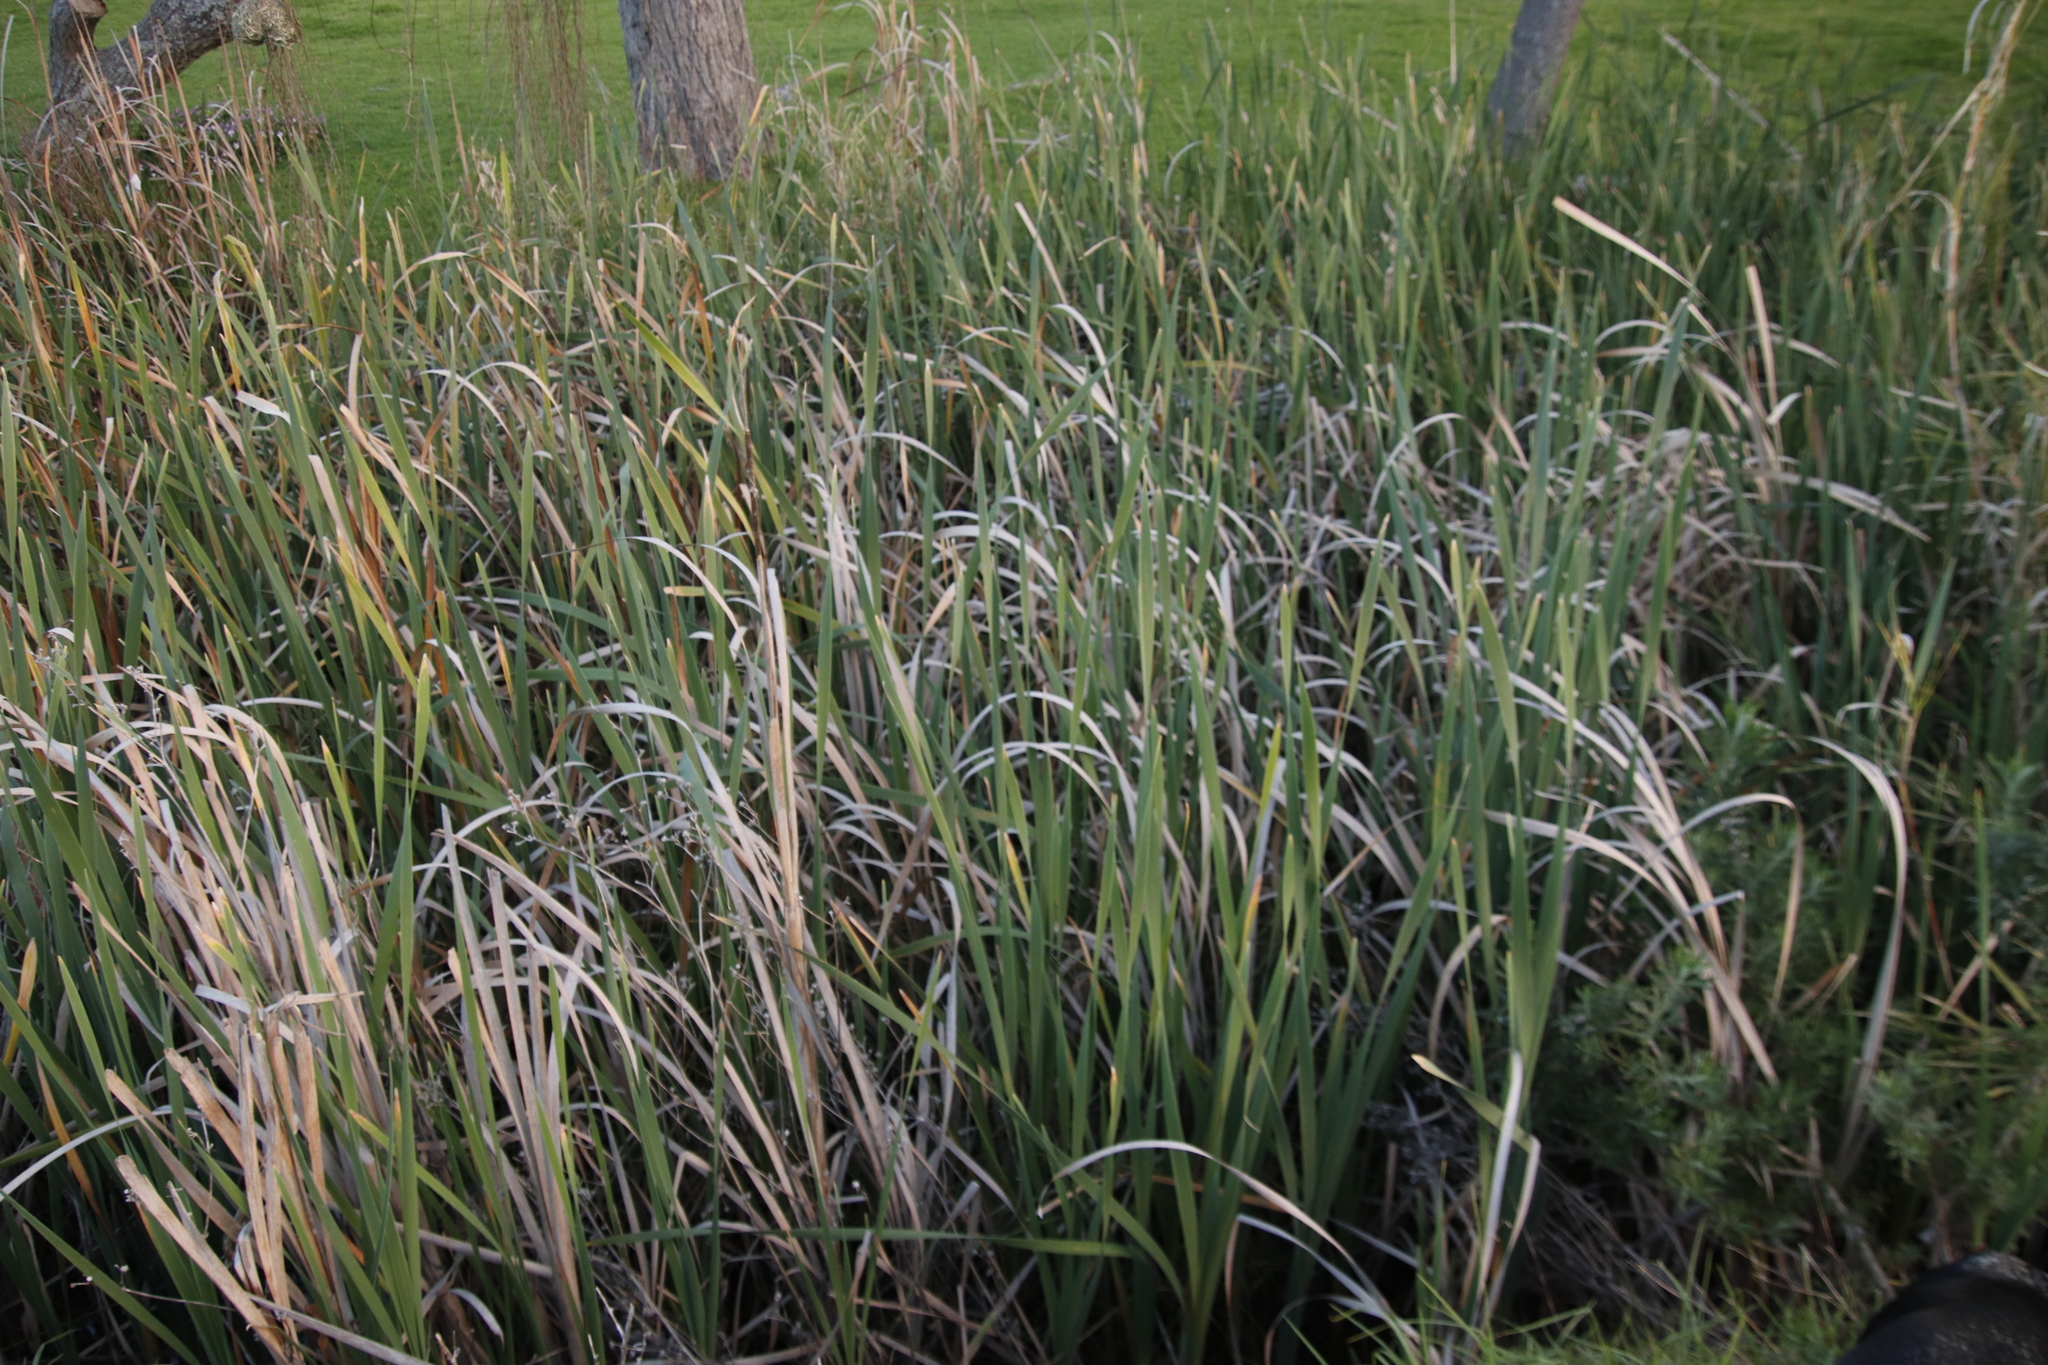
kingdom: Plantae
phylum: Tracheophyta
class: Liliopsida
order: Poales
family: Typhaceae
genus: Typha
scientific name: Typha capensis
